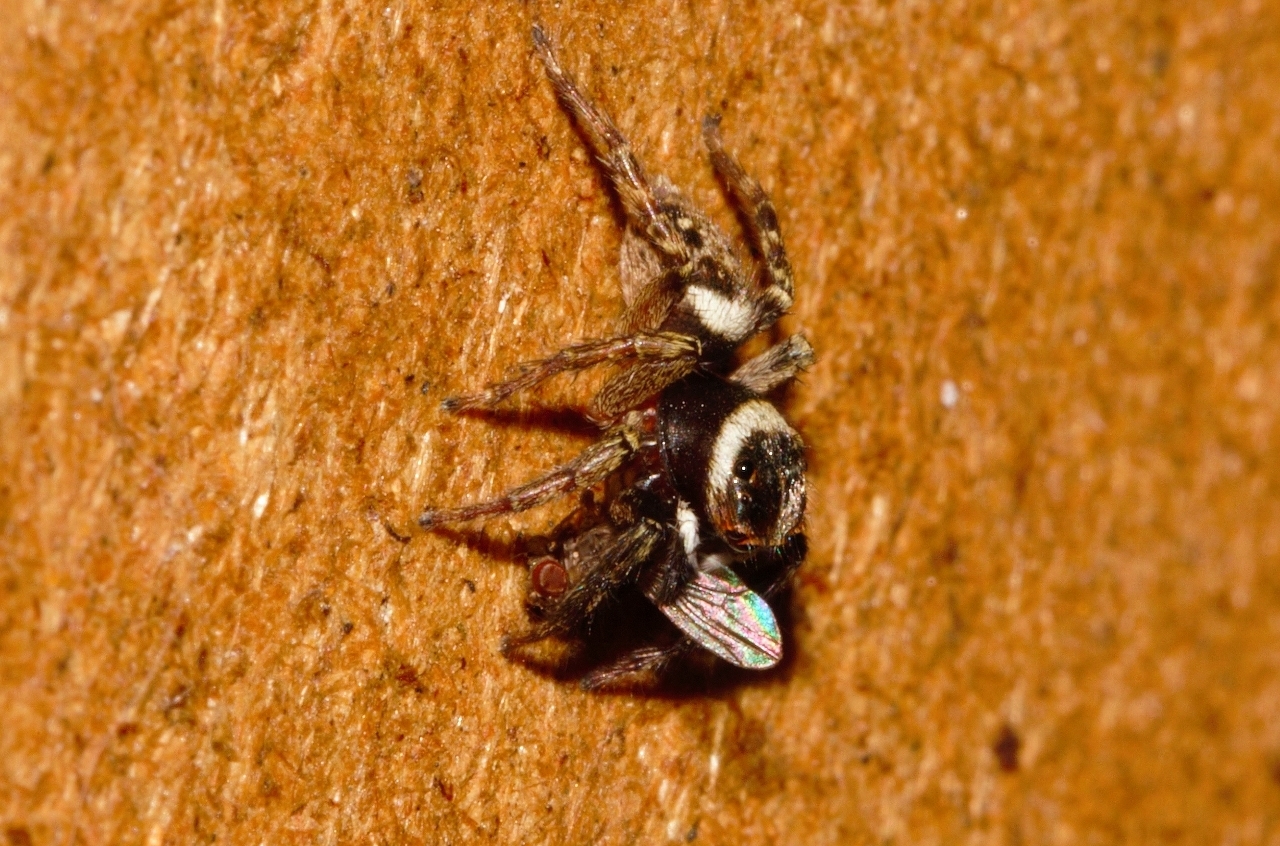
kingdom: Animalia
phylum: Arthropoda
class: Arachnida
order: Araneae
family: Salticidae
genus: Hasarius
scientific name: Hasarius adansoni
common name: Jumping spider
